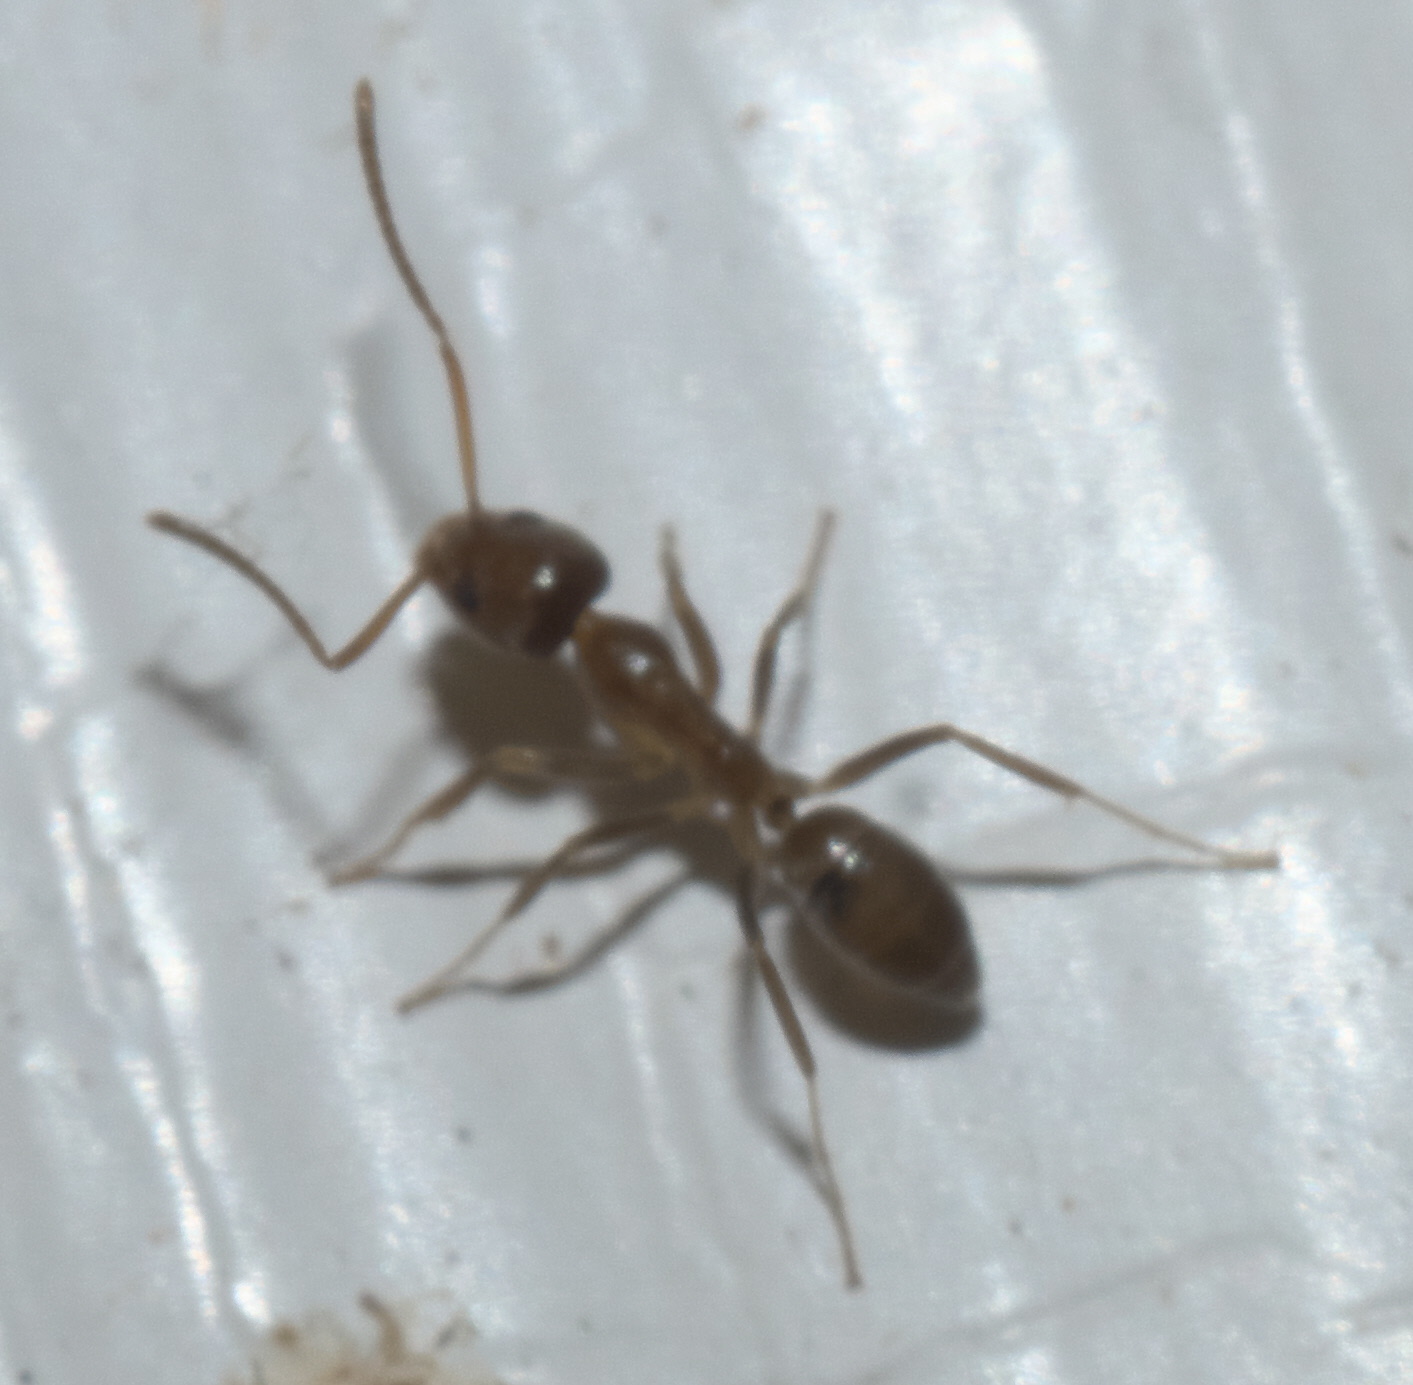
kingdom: Animalia
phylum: Arthropoda
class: Insecta
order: Hymenoptera
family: Formicidae
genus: Linepithema
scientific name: Linepithema humile
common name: Argentine ant
